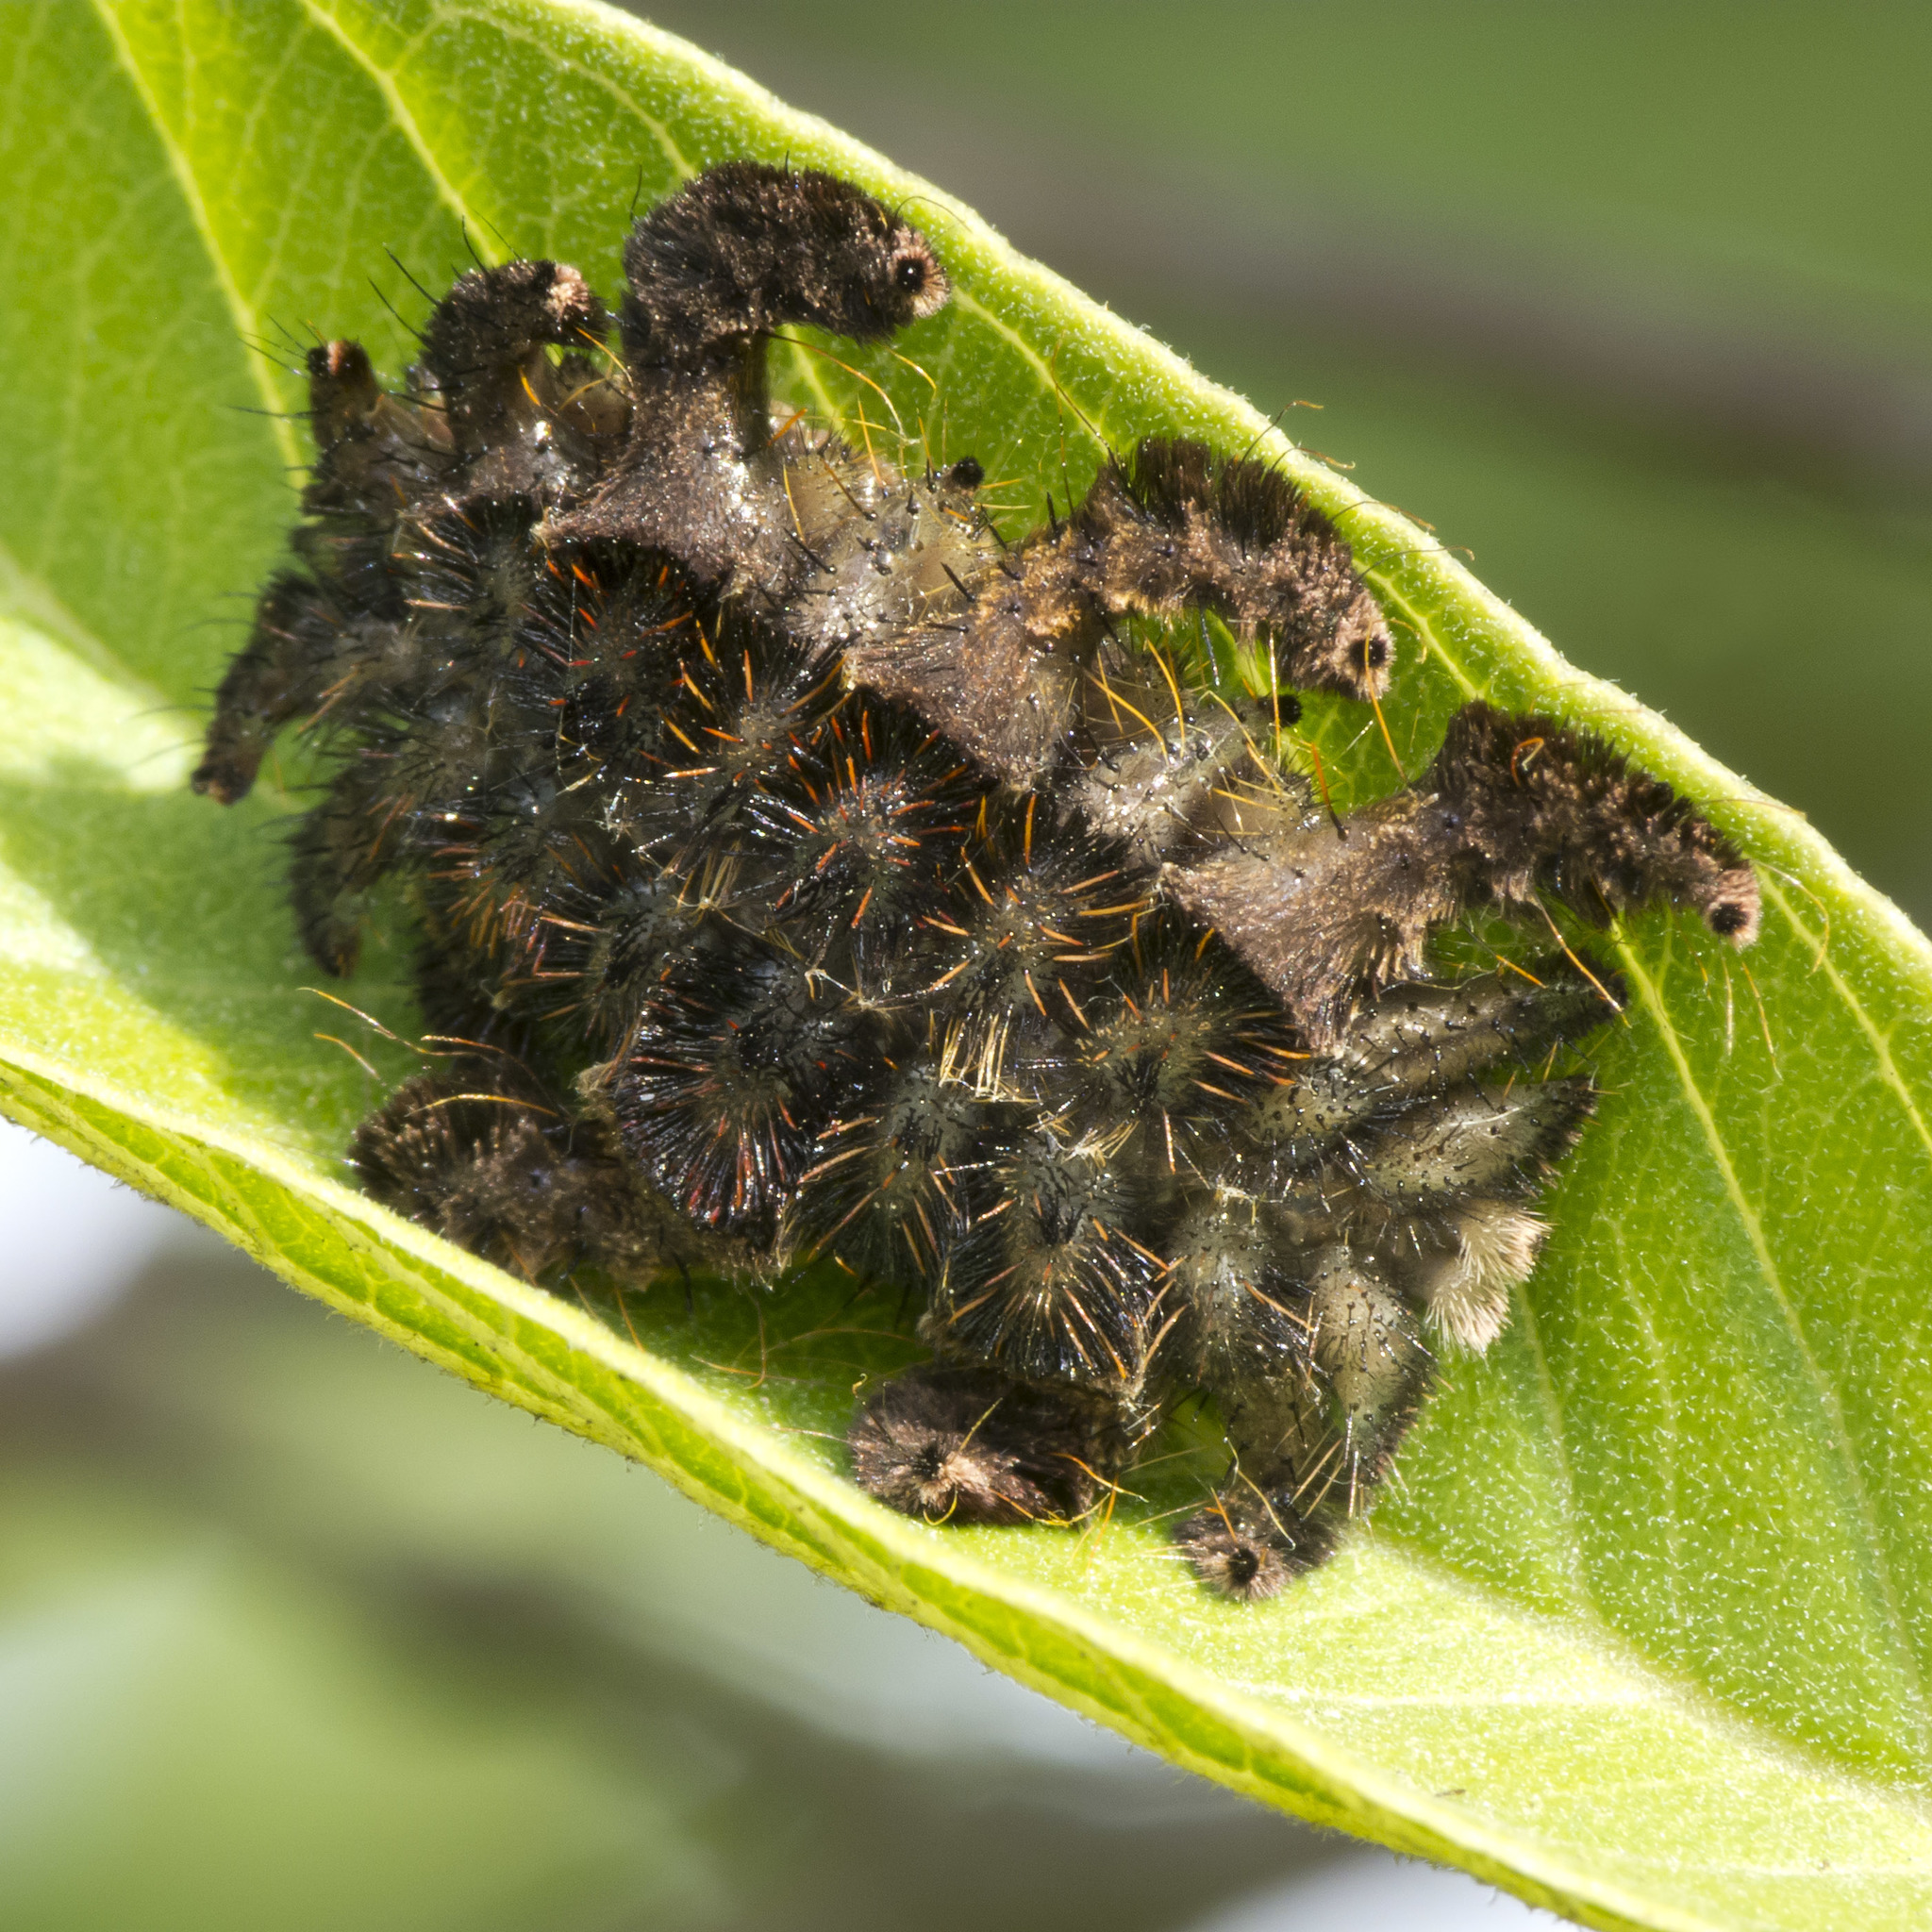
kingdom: Animalia
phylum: Arthropoda
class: Insecta
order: Lepidoptera
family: Limacodidae
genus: Phobetron
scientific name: Phobetron hipparchia
